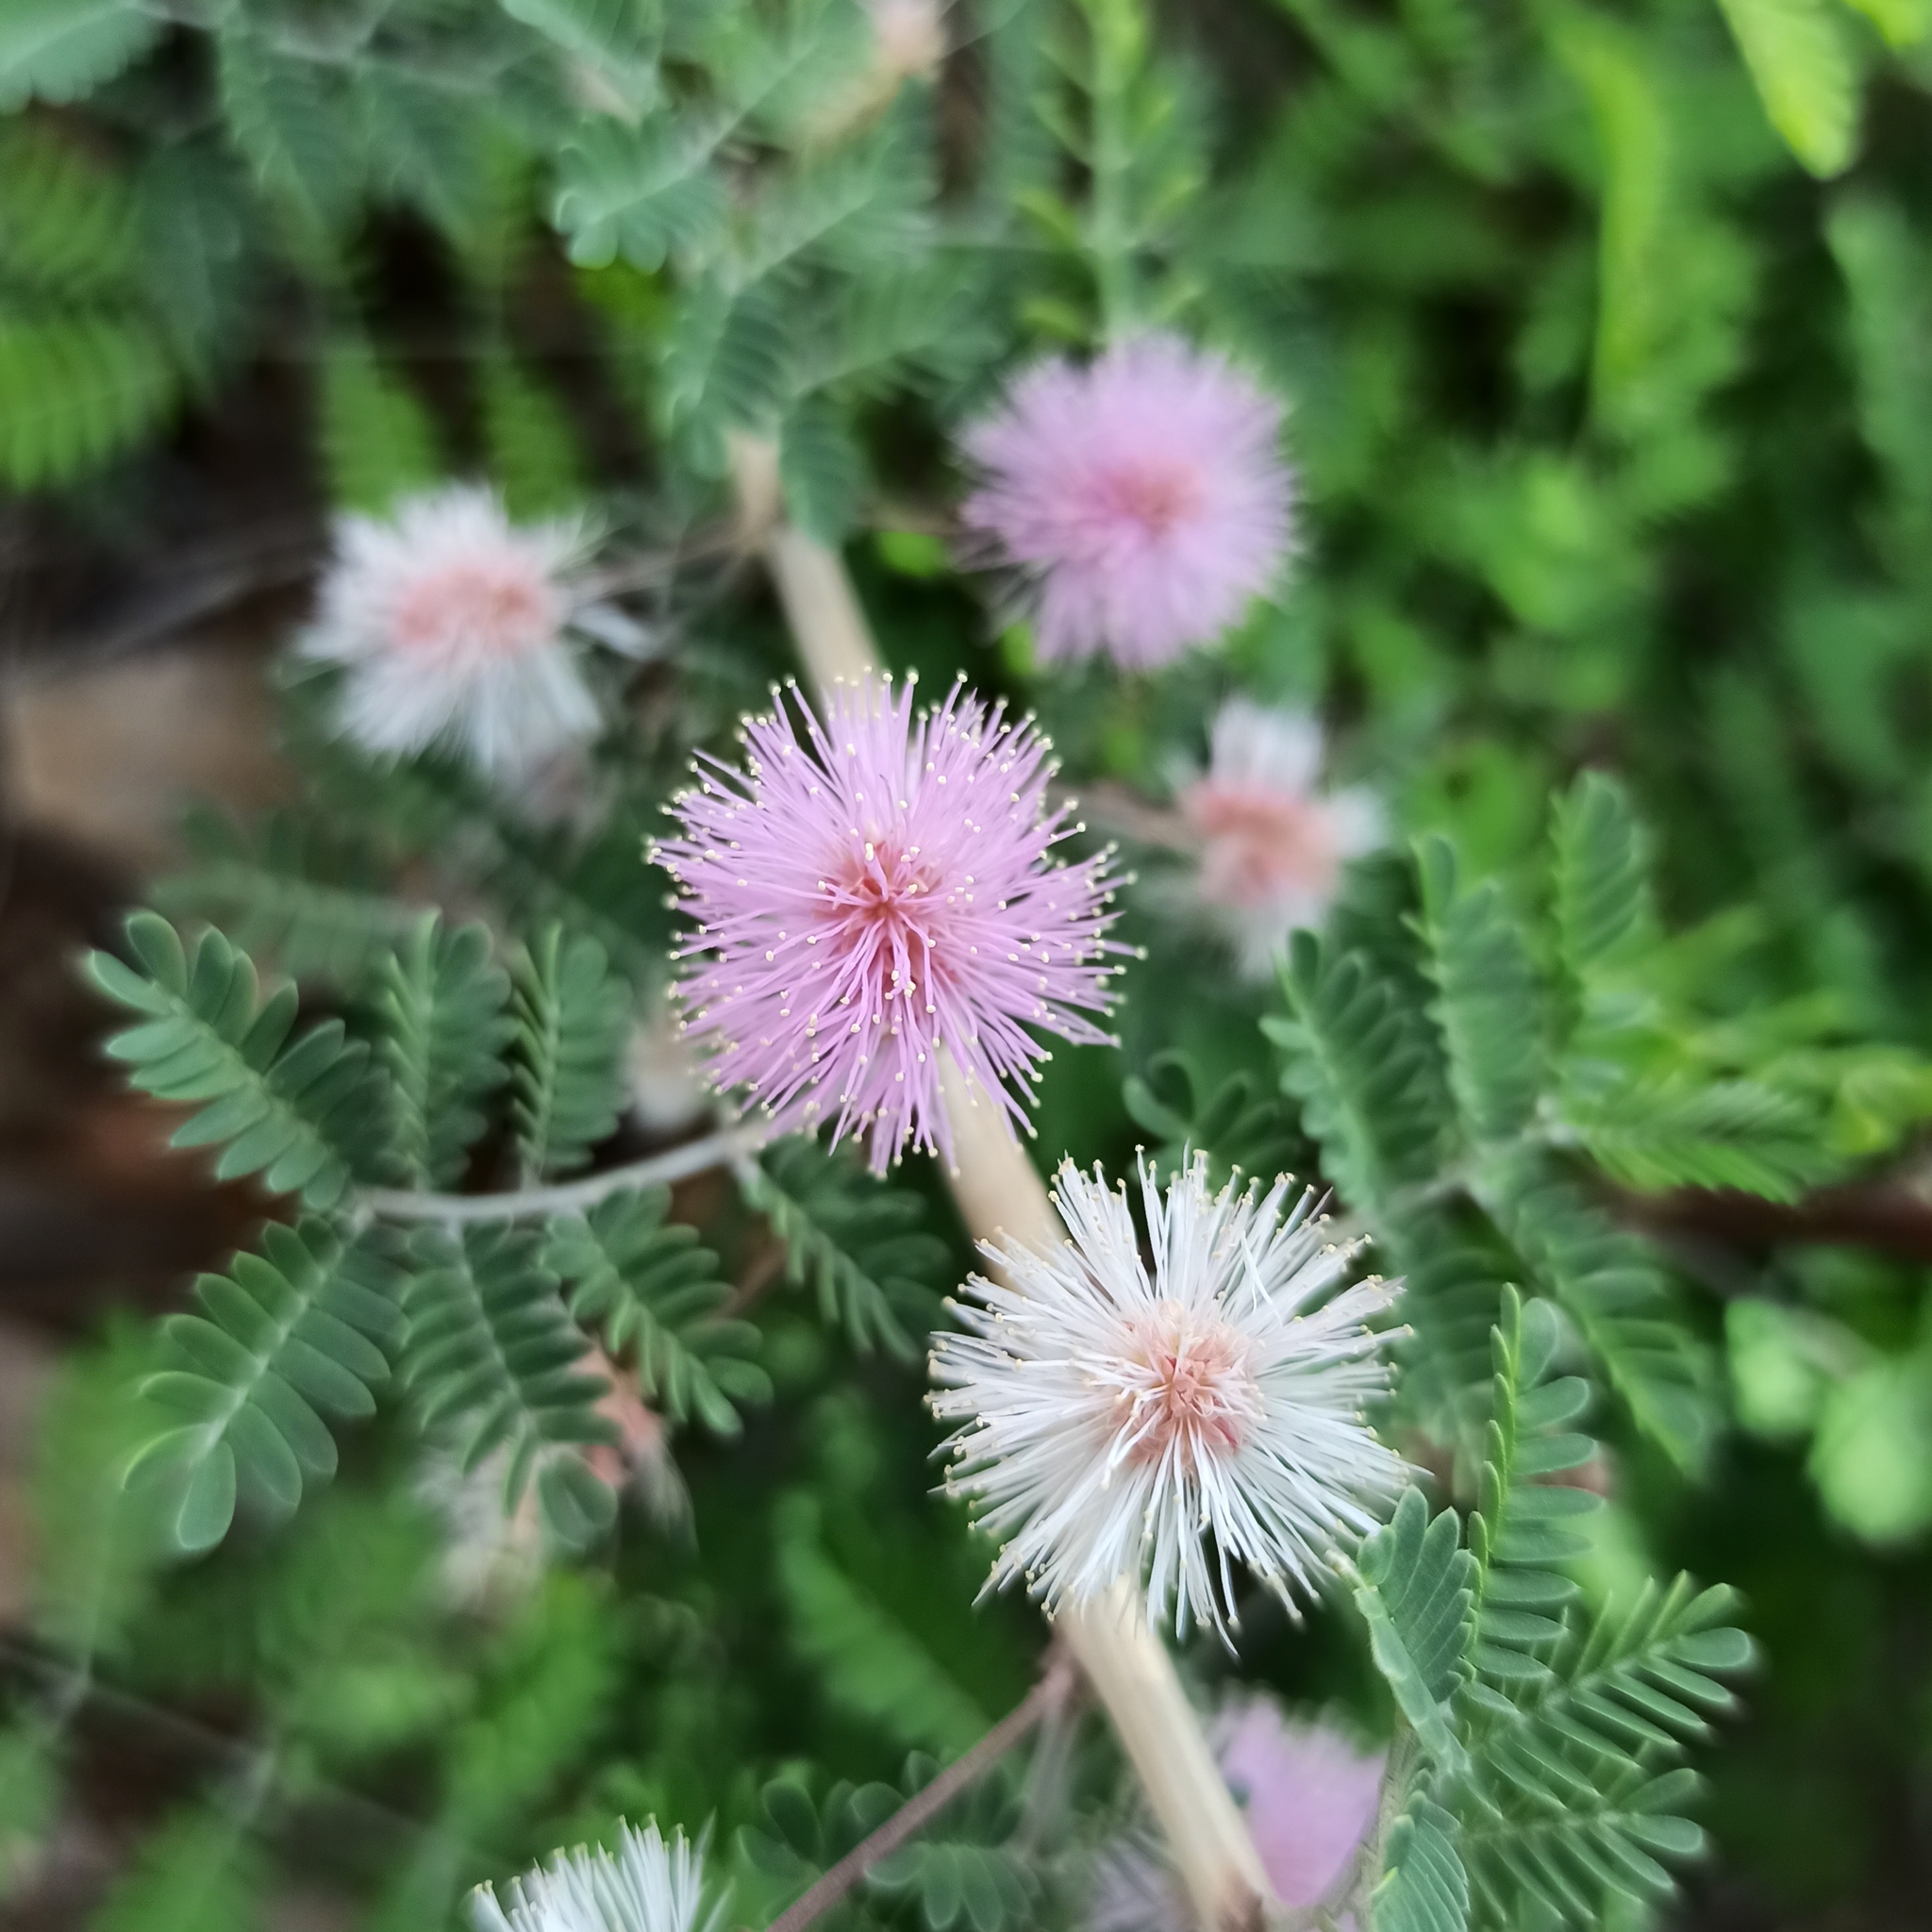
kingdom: Plantae
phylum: Tracheophyta
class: Magnoliopsida
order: Fabales
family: Fabaceae
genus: Mimosa
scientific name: Mimosa aculeaticarpa
